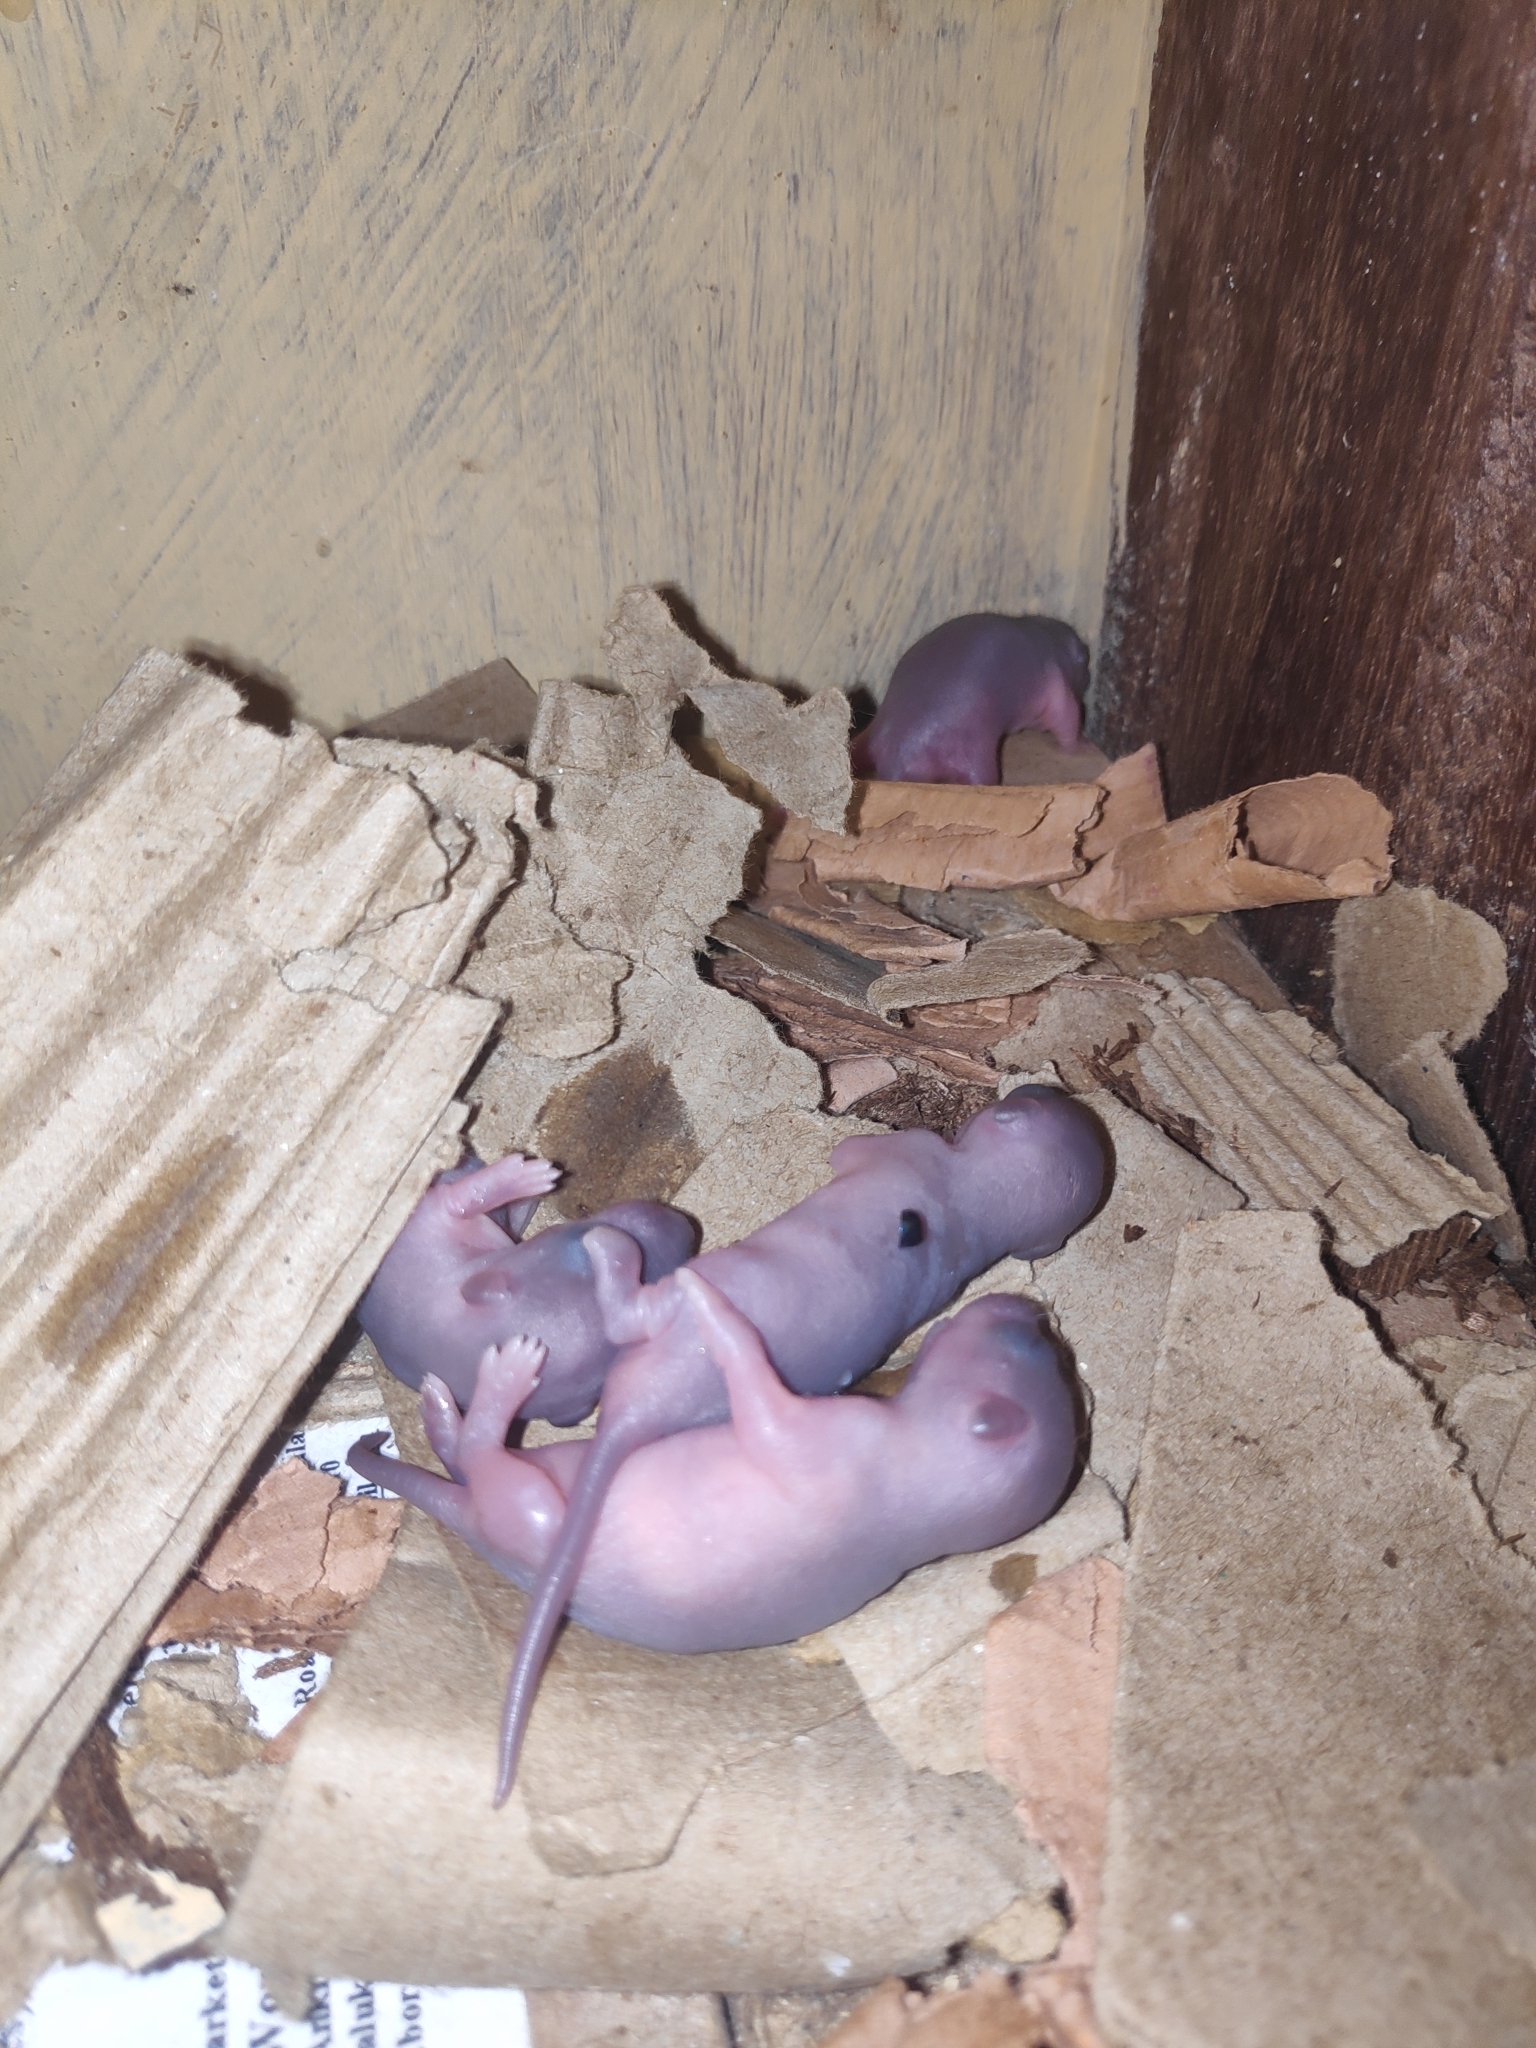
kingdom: Animalia
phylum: Chordata
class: Mammalia
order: Rodentia
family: Muridae
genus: Rattus
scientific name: Rattus rattus
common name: Black rat
